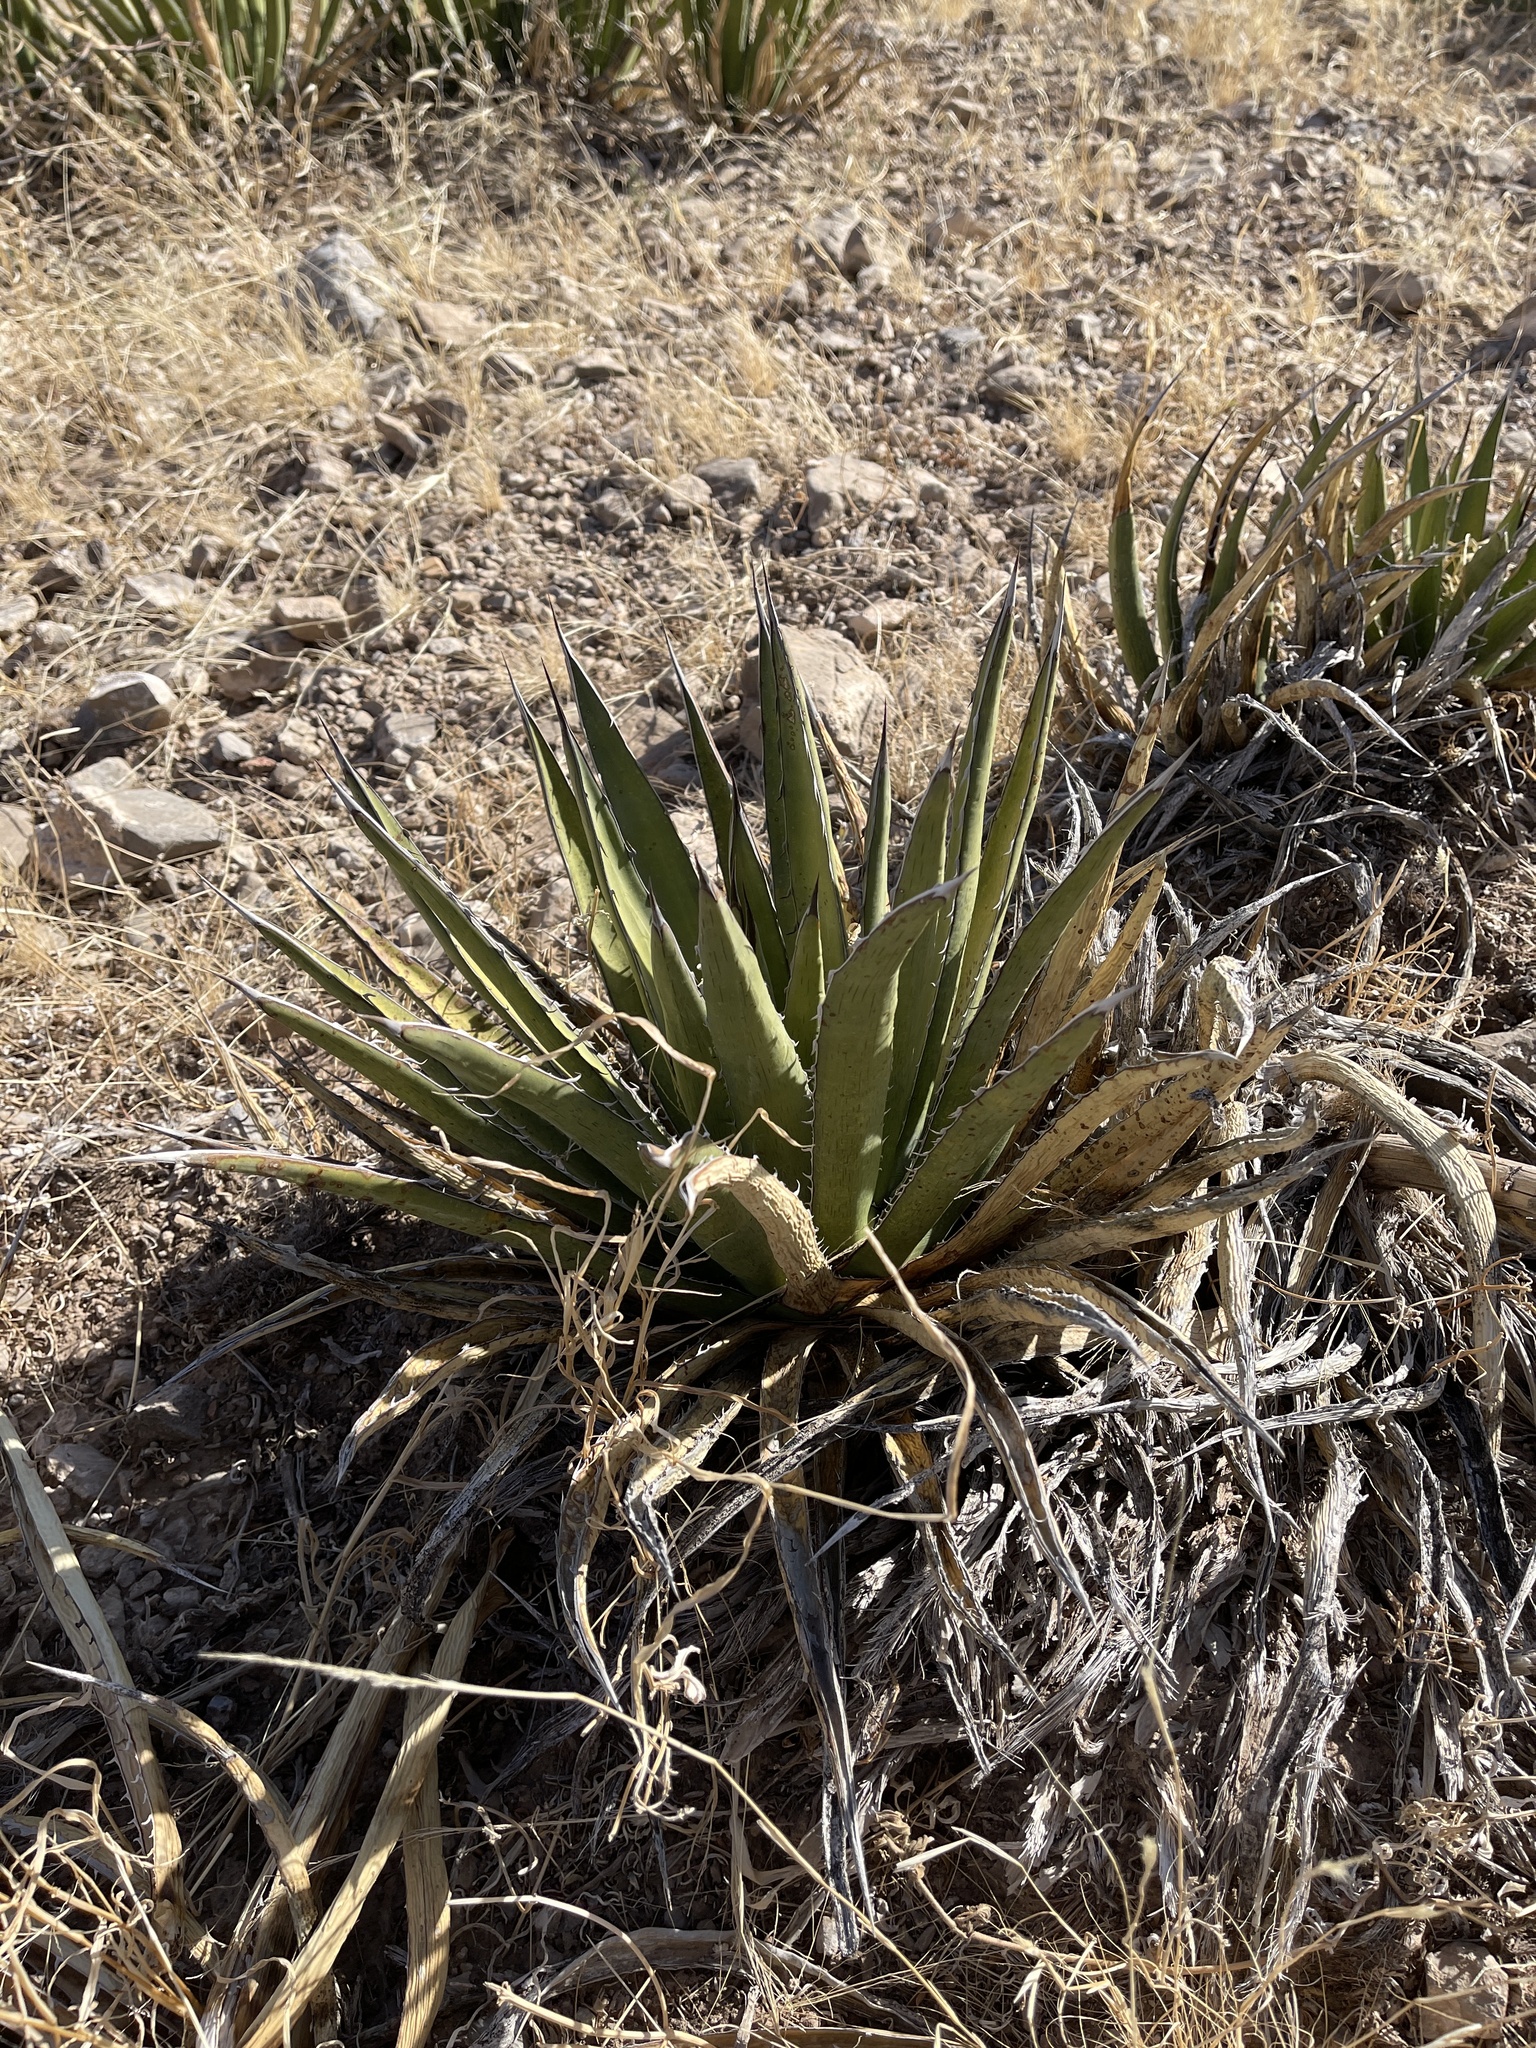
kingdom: Plantae
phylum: Tracheophyta
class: Liliopsida
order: Asparagales
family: Asparagaceae
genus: Agave
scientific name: Agave lechuguilla
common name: Lecheguilla agave
